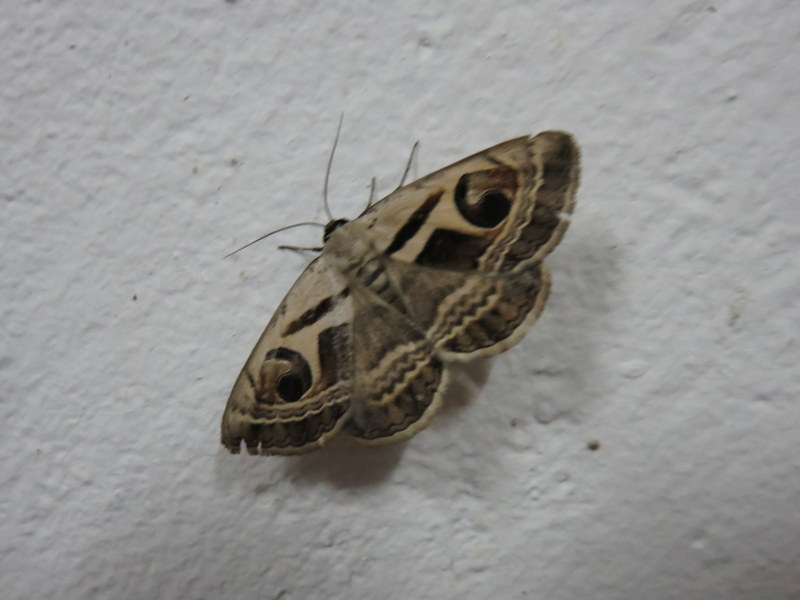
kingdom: Animalia
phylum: Arthropoda
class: Insecta
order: Lepidoptera
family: Erebidae
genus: Cometaster
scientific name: Cometaster pyrula
